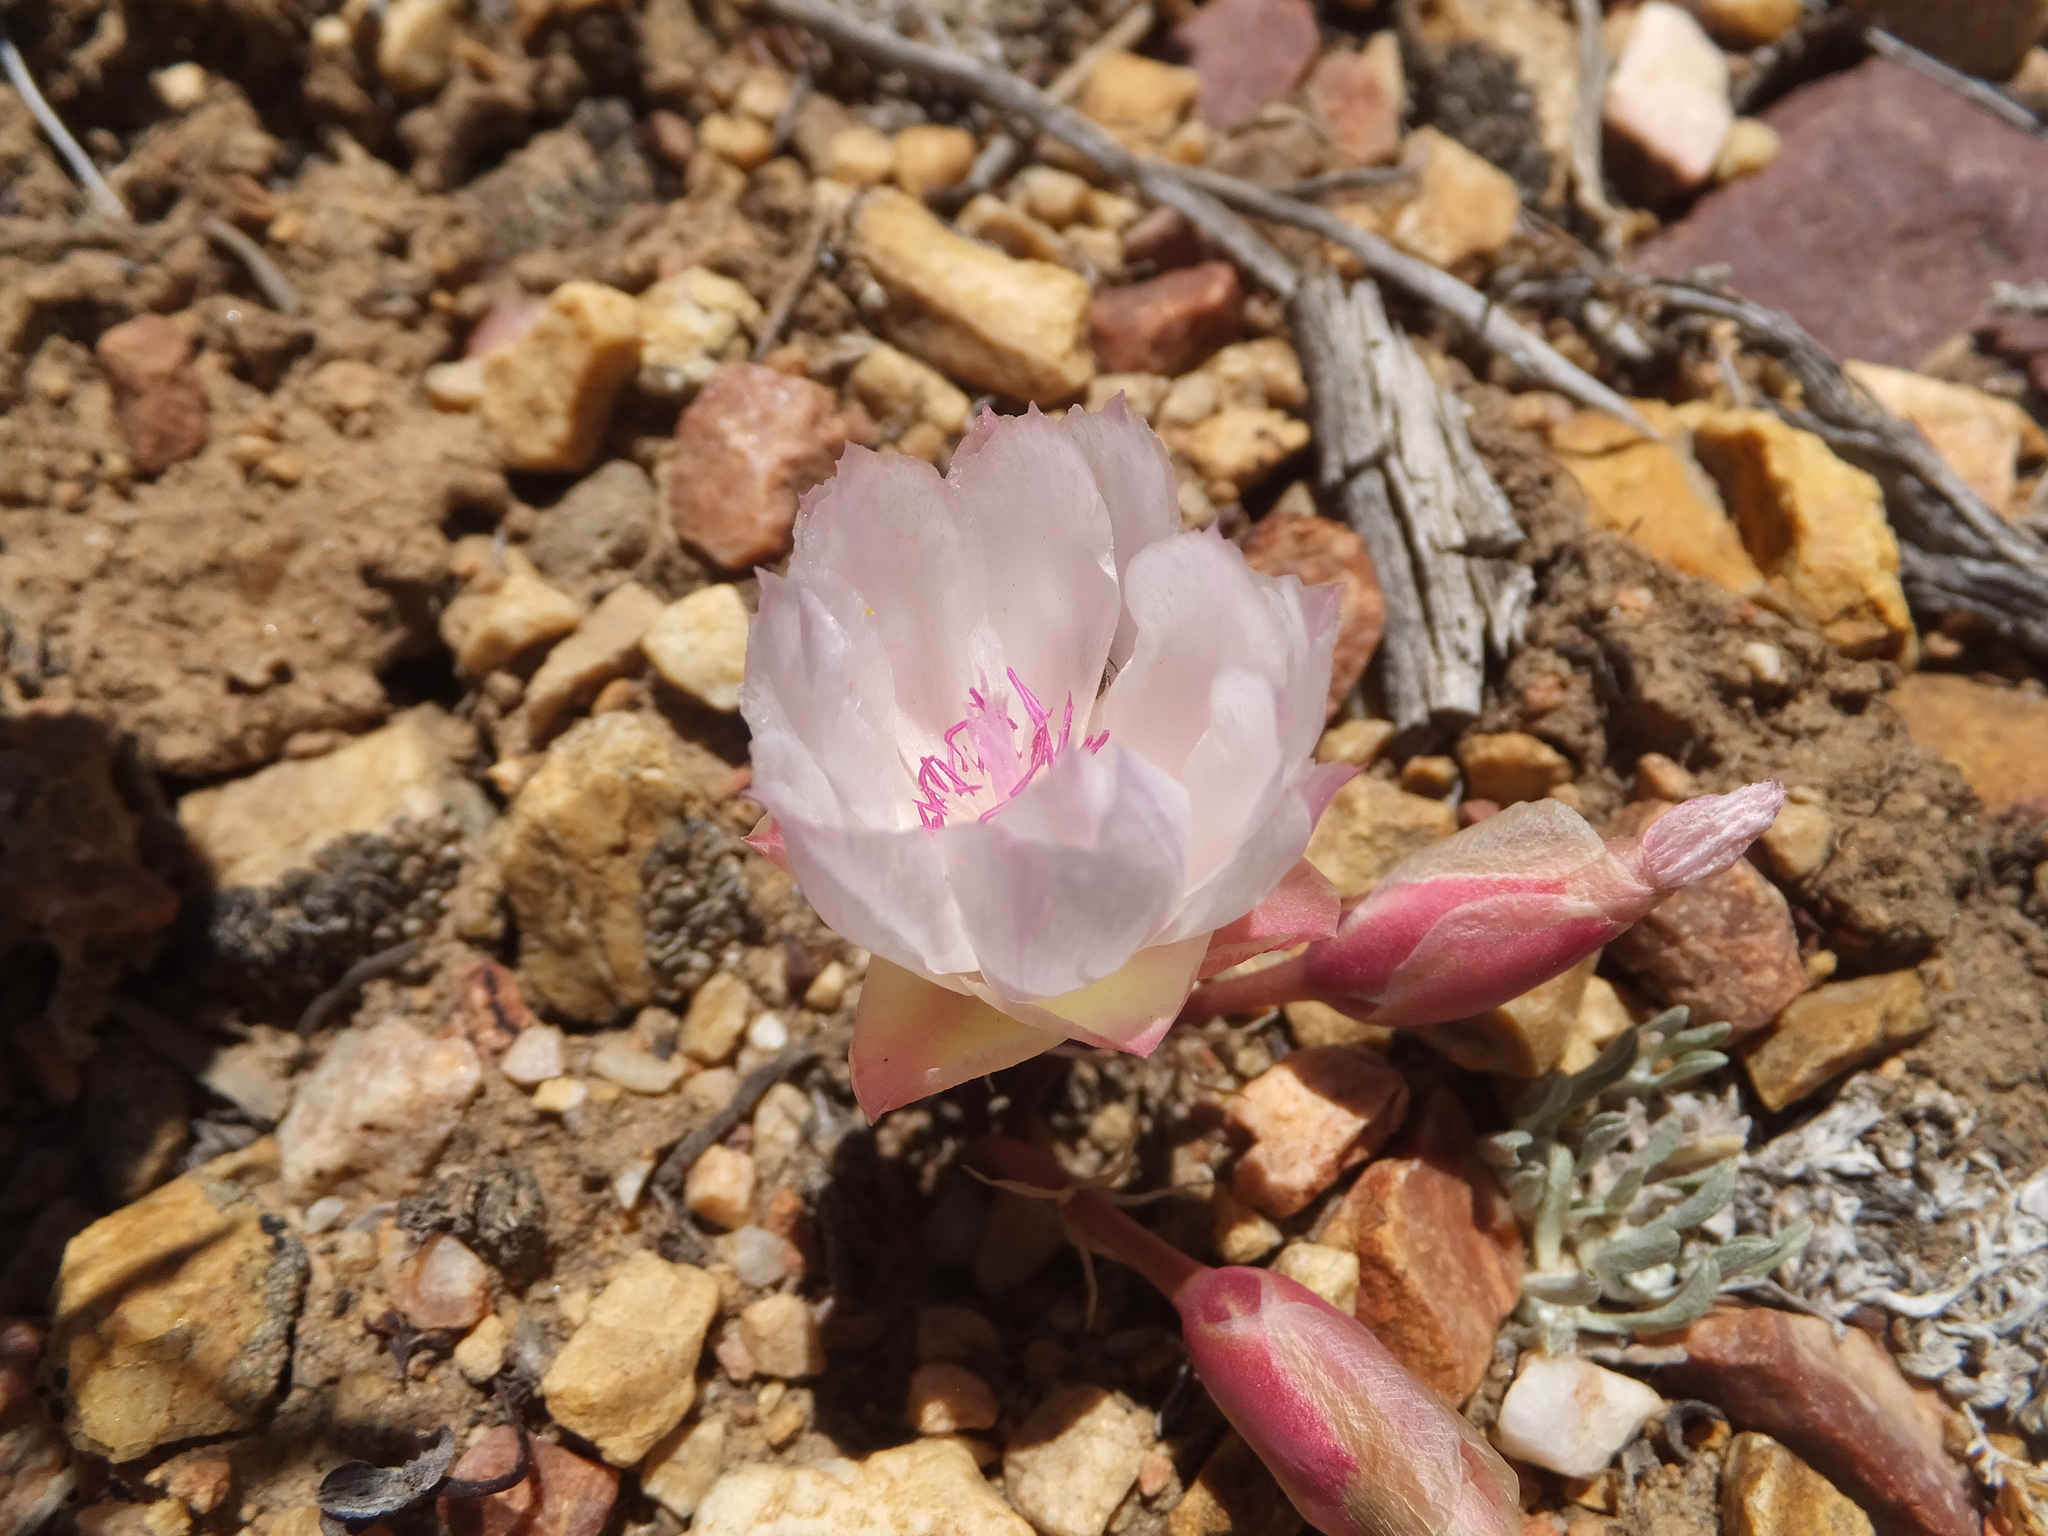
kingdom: Plantae
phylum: Tracheophyta
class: Magnoliopsida
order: Caryophyllales
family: Montiaceae
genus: Lewisia
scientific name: Lewisia rediviva
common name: Bitter-root
